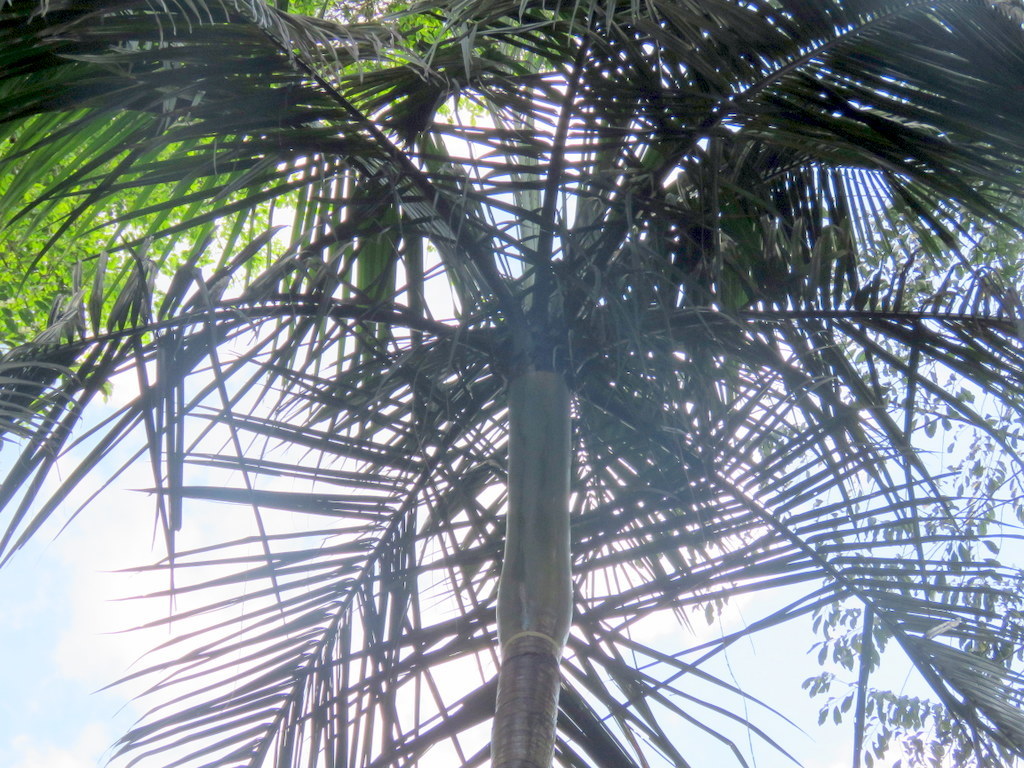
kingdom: Plantae
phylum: Tracheophyta
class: Liliopsida
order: Arecales
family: Arecaceae
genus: Euterpe
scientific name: Euterpe edulis
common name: Assai palm
